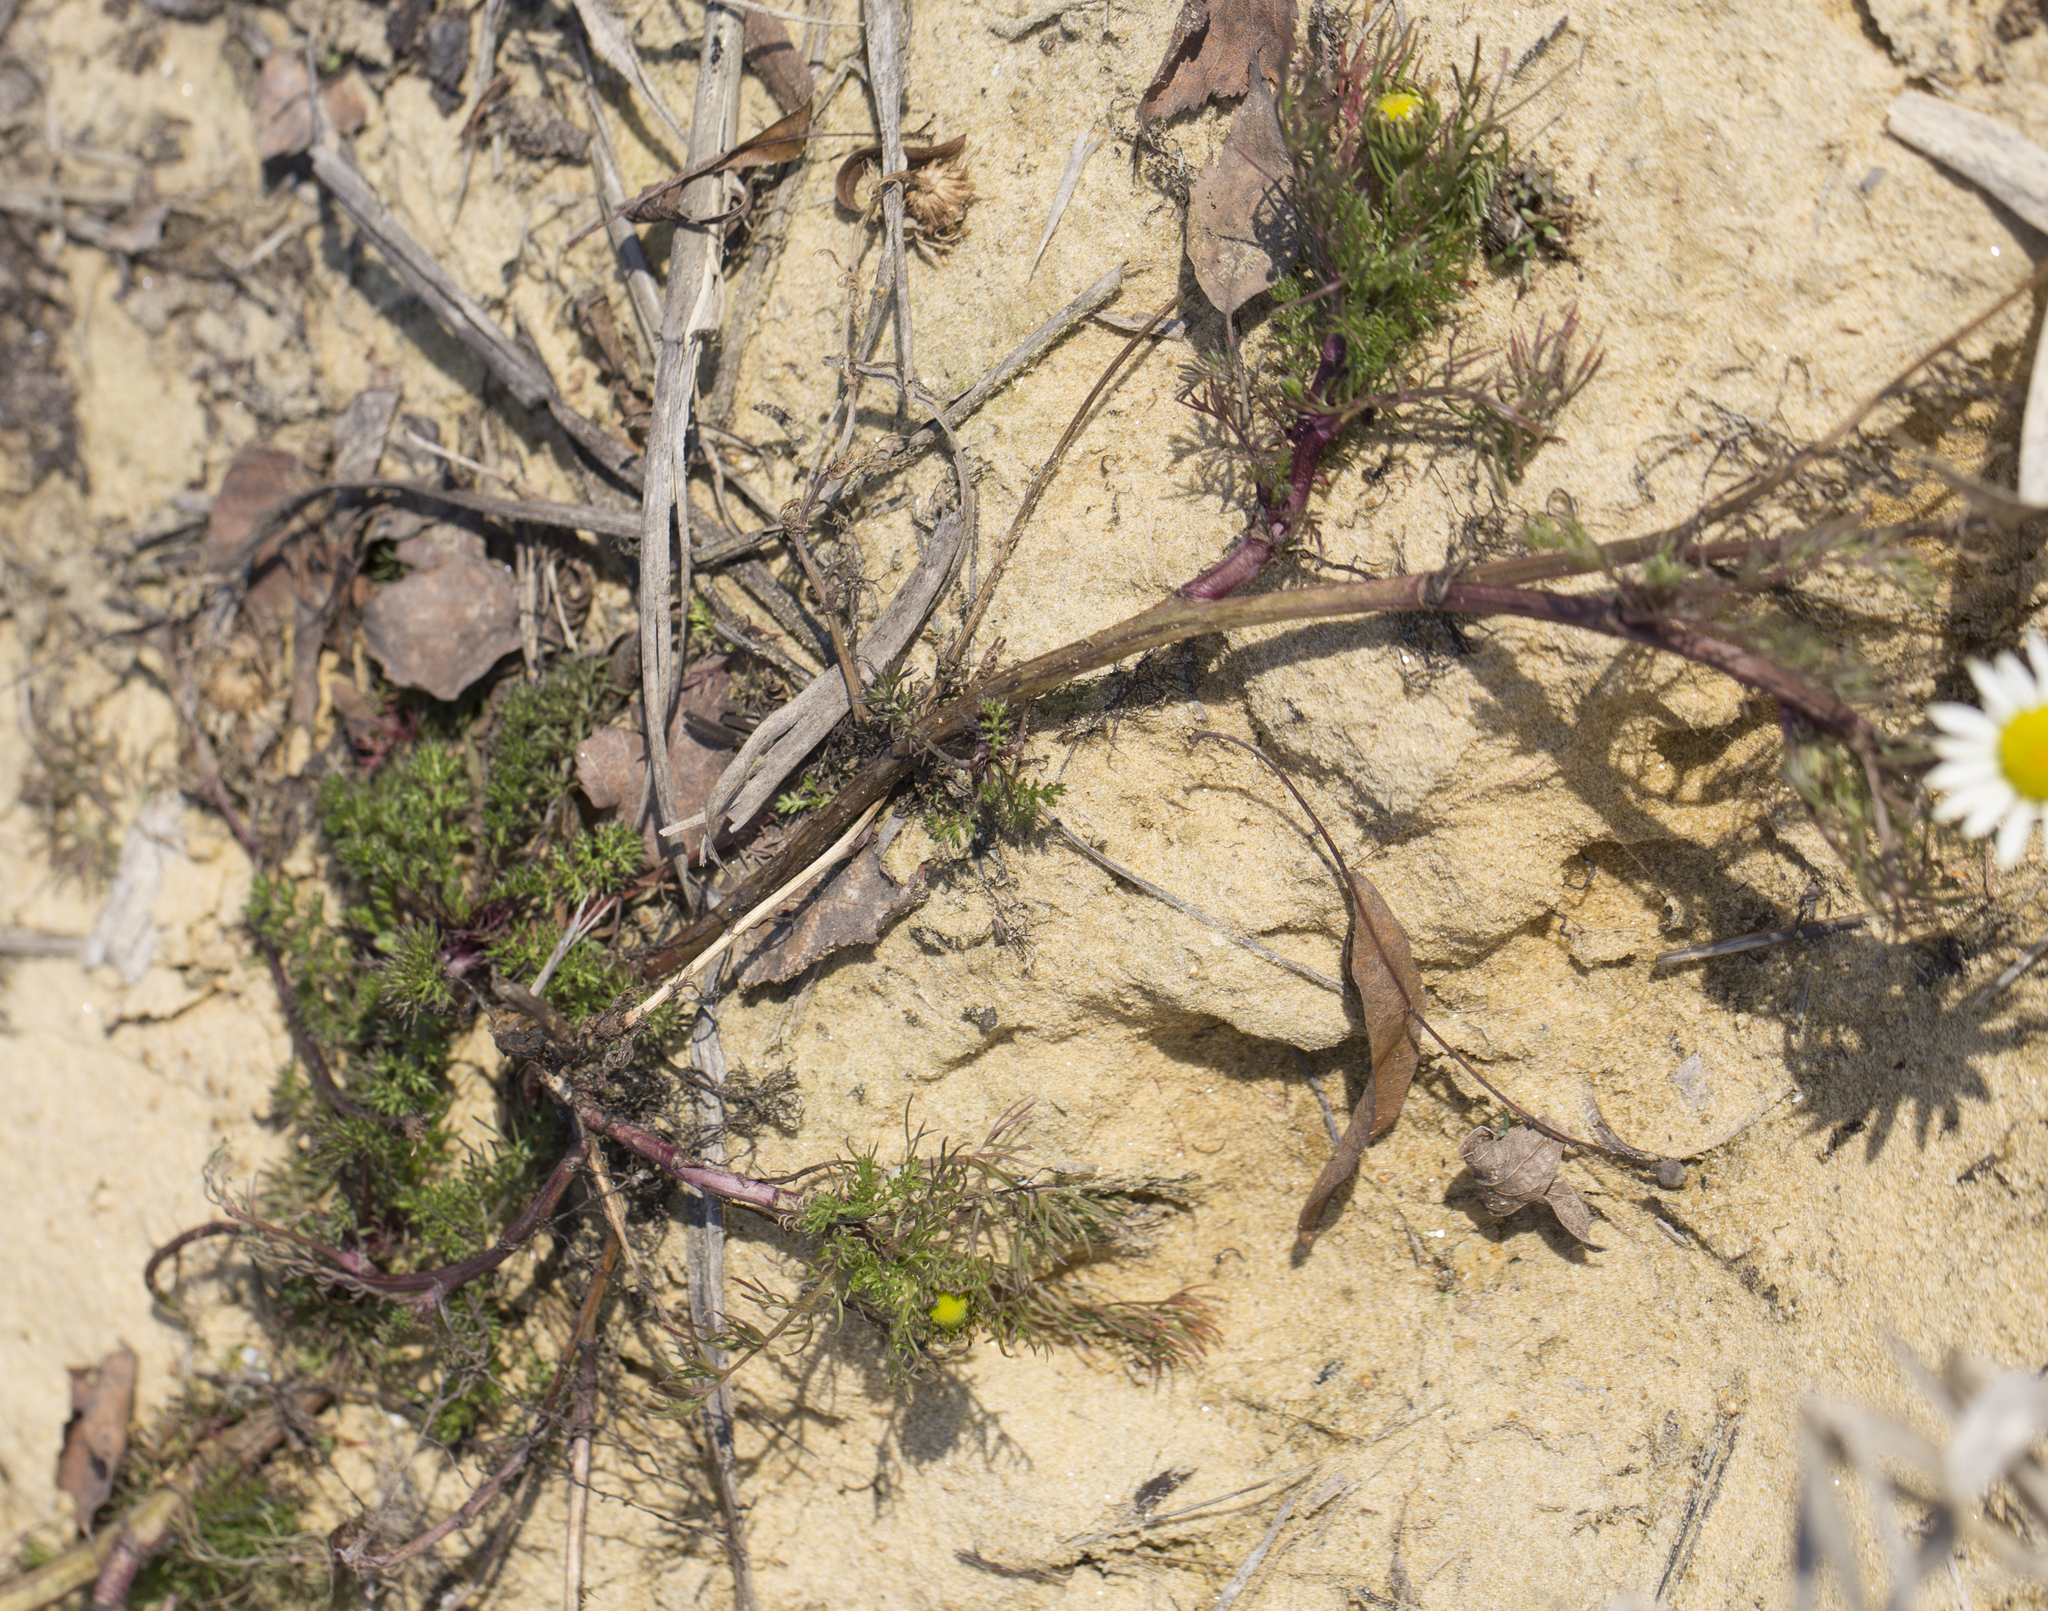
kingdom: Plantae
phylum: Tracheophyta
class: Magnoliopsida
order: Asterales
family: Asteraceae
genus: Tripleurospermum
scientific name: Tripleurospermum inodorum
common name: Scentless mayweed
